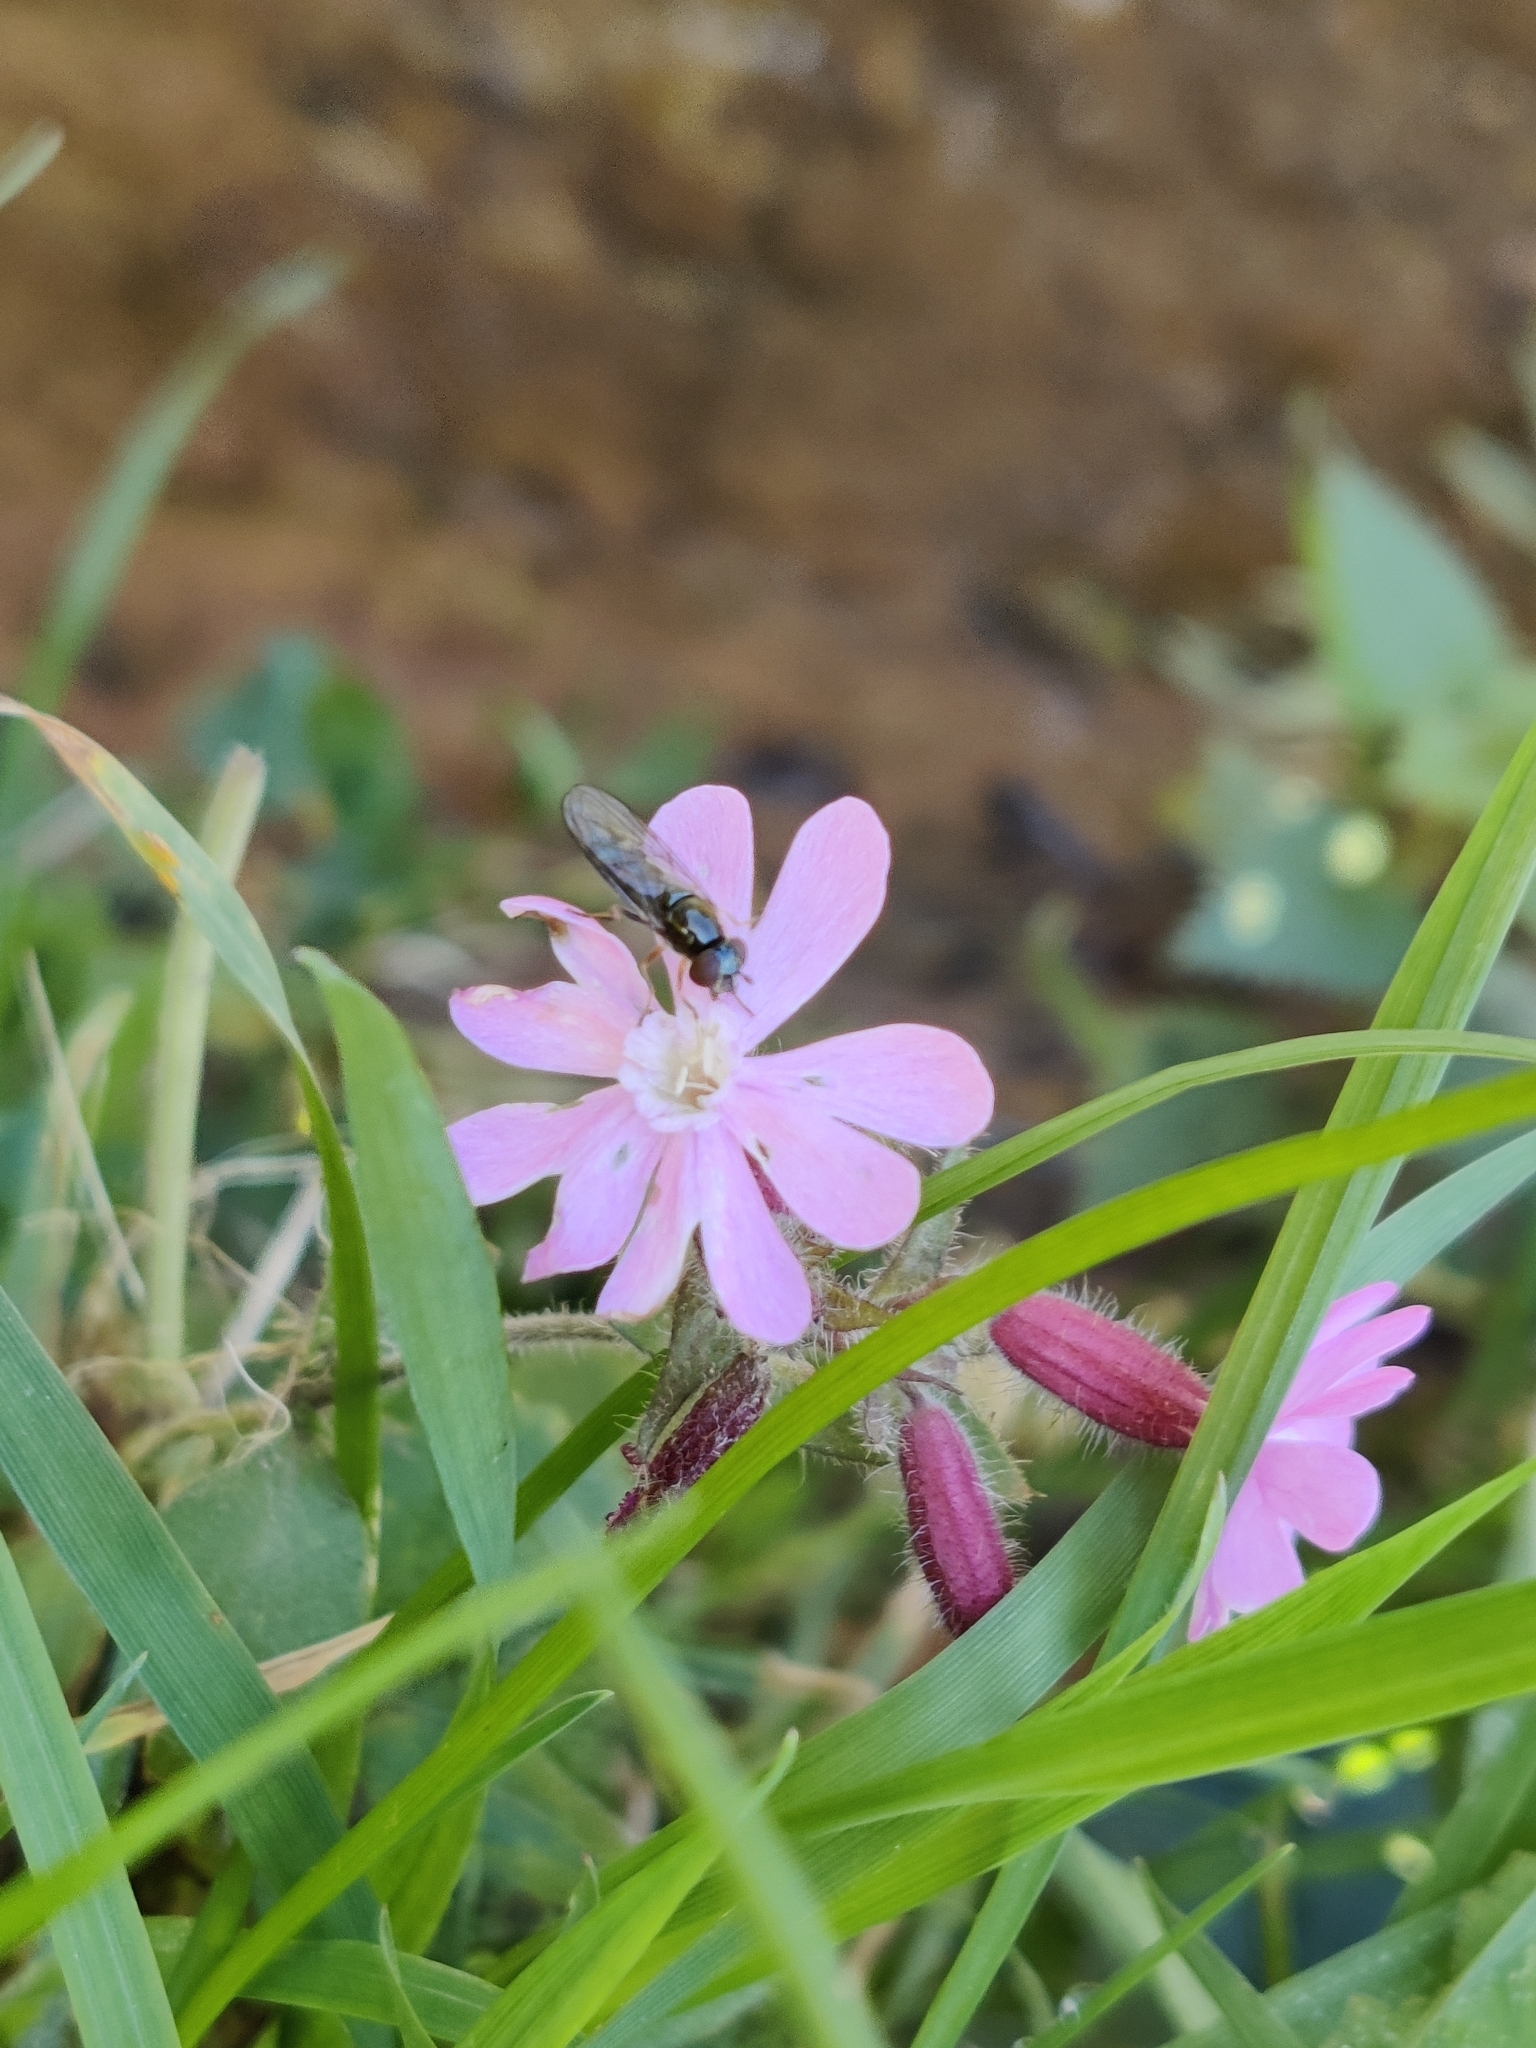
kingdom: Plantae
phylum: Tracheophyta
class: Magnoliopsida
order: Caryophyllales
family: Caryophyllaceae
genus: Silene
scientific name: Silene dioica
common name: Red campion
